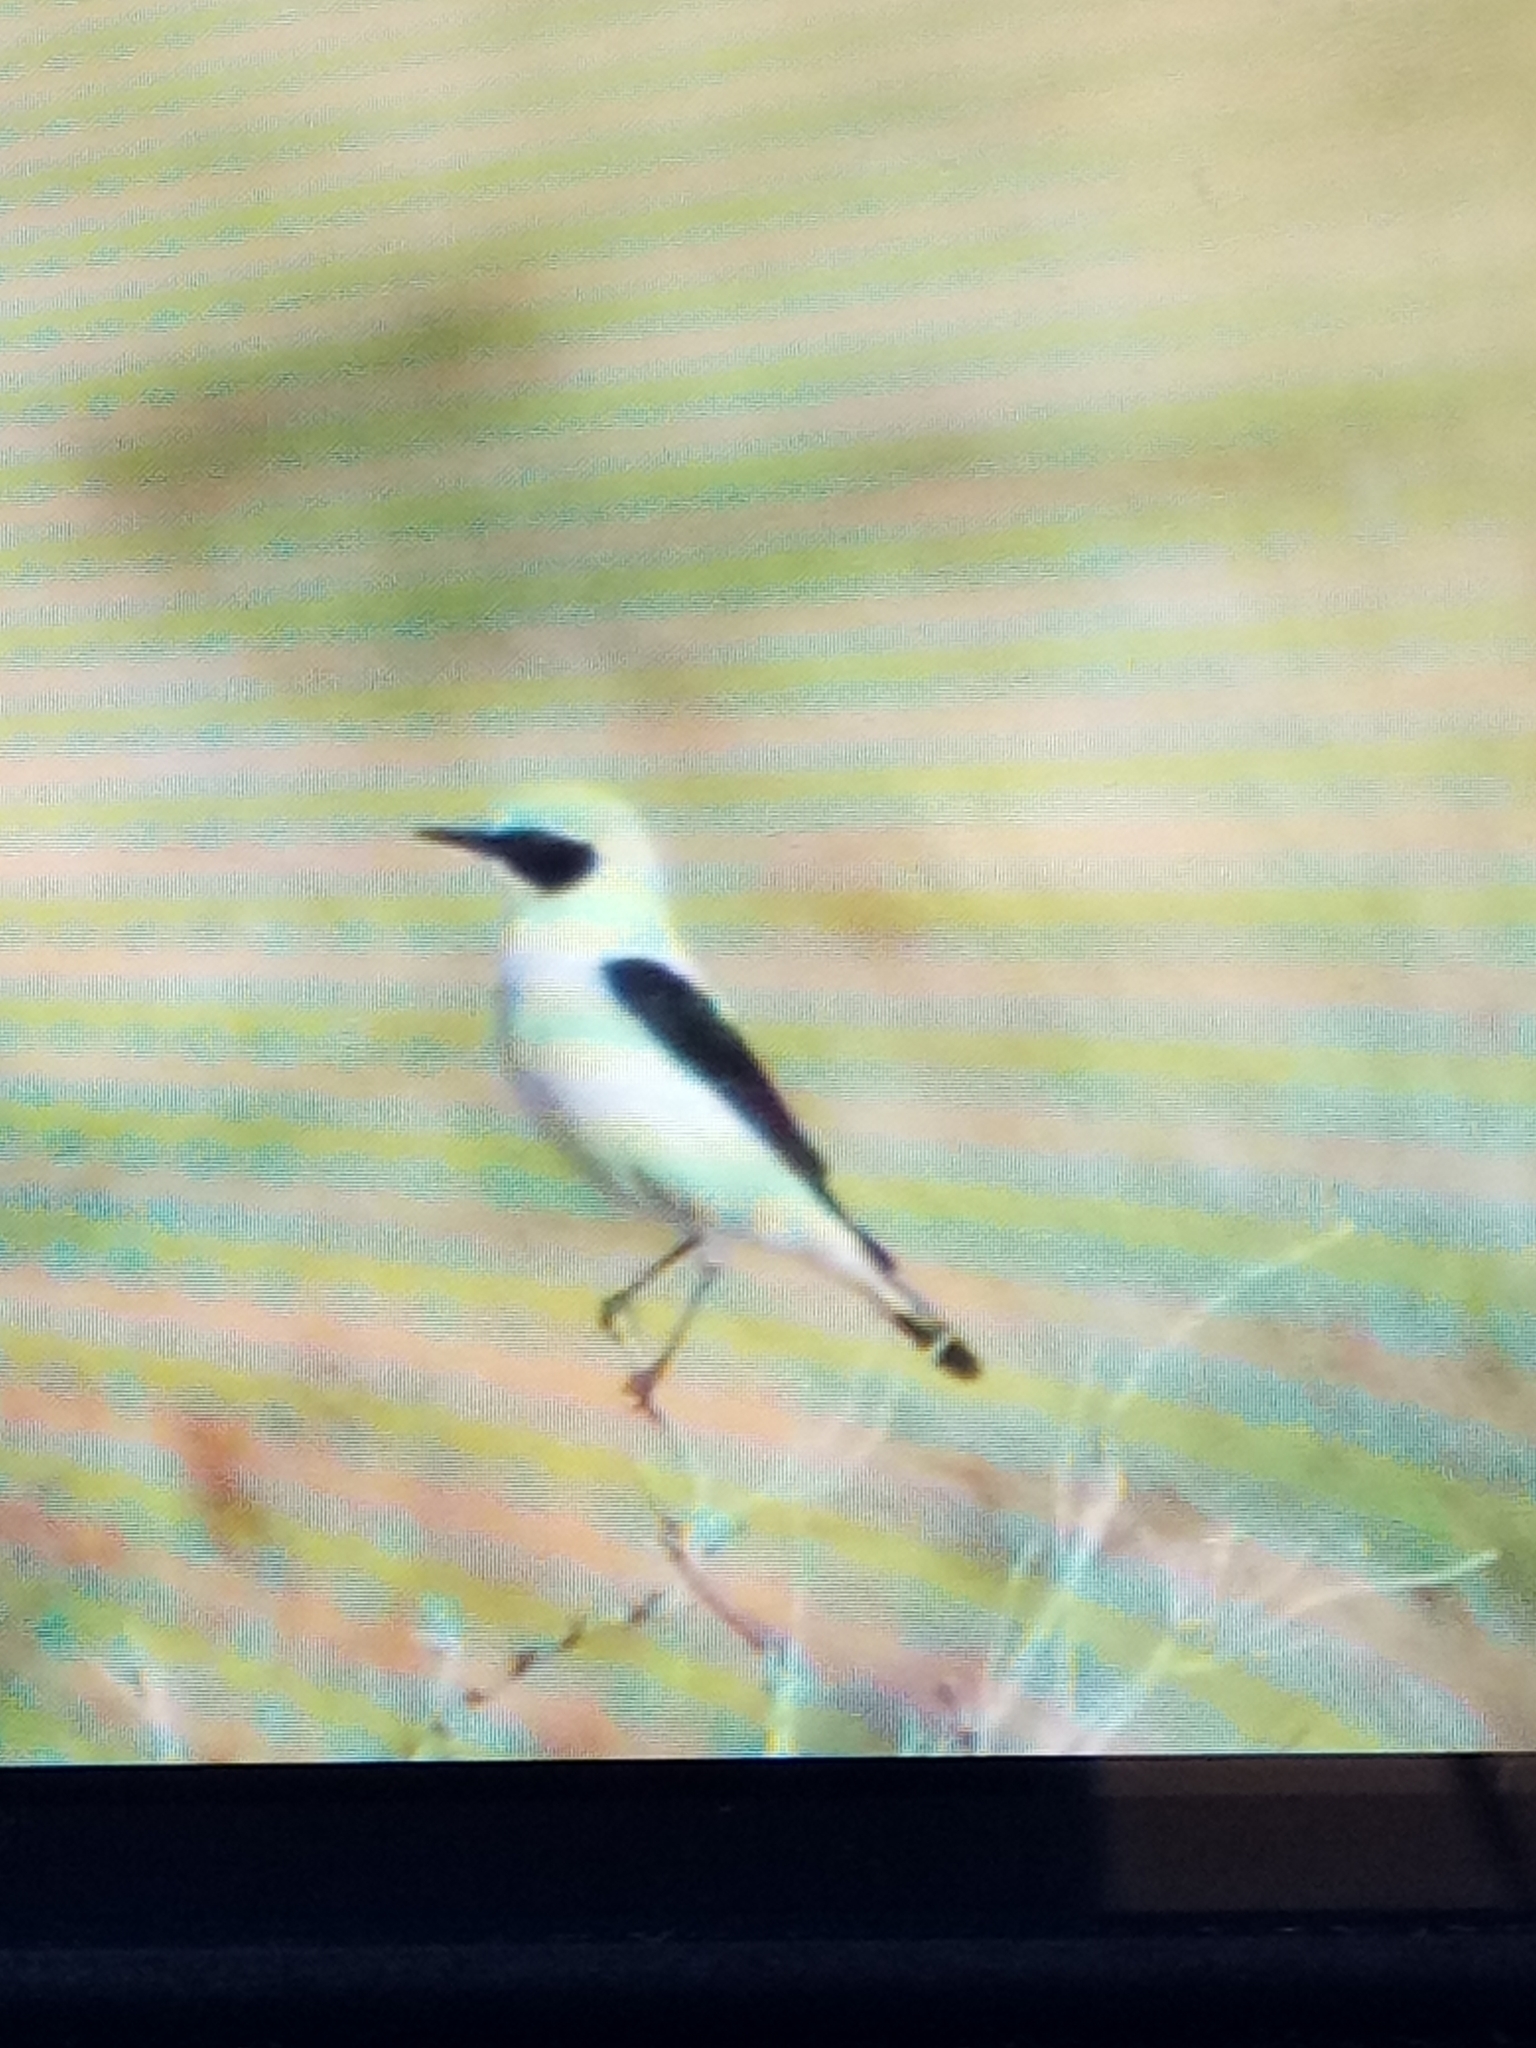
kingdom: Animalia
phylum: Chordata
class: Aves
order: Passeriformes
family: Muscicapidae
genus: Oenanthe
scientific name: Oenanthe hispanica
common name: Black-eared wheatear
